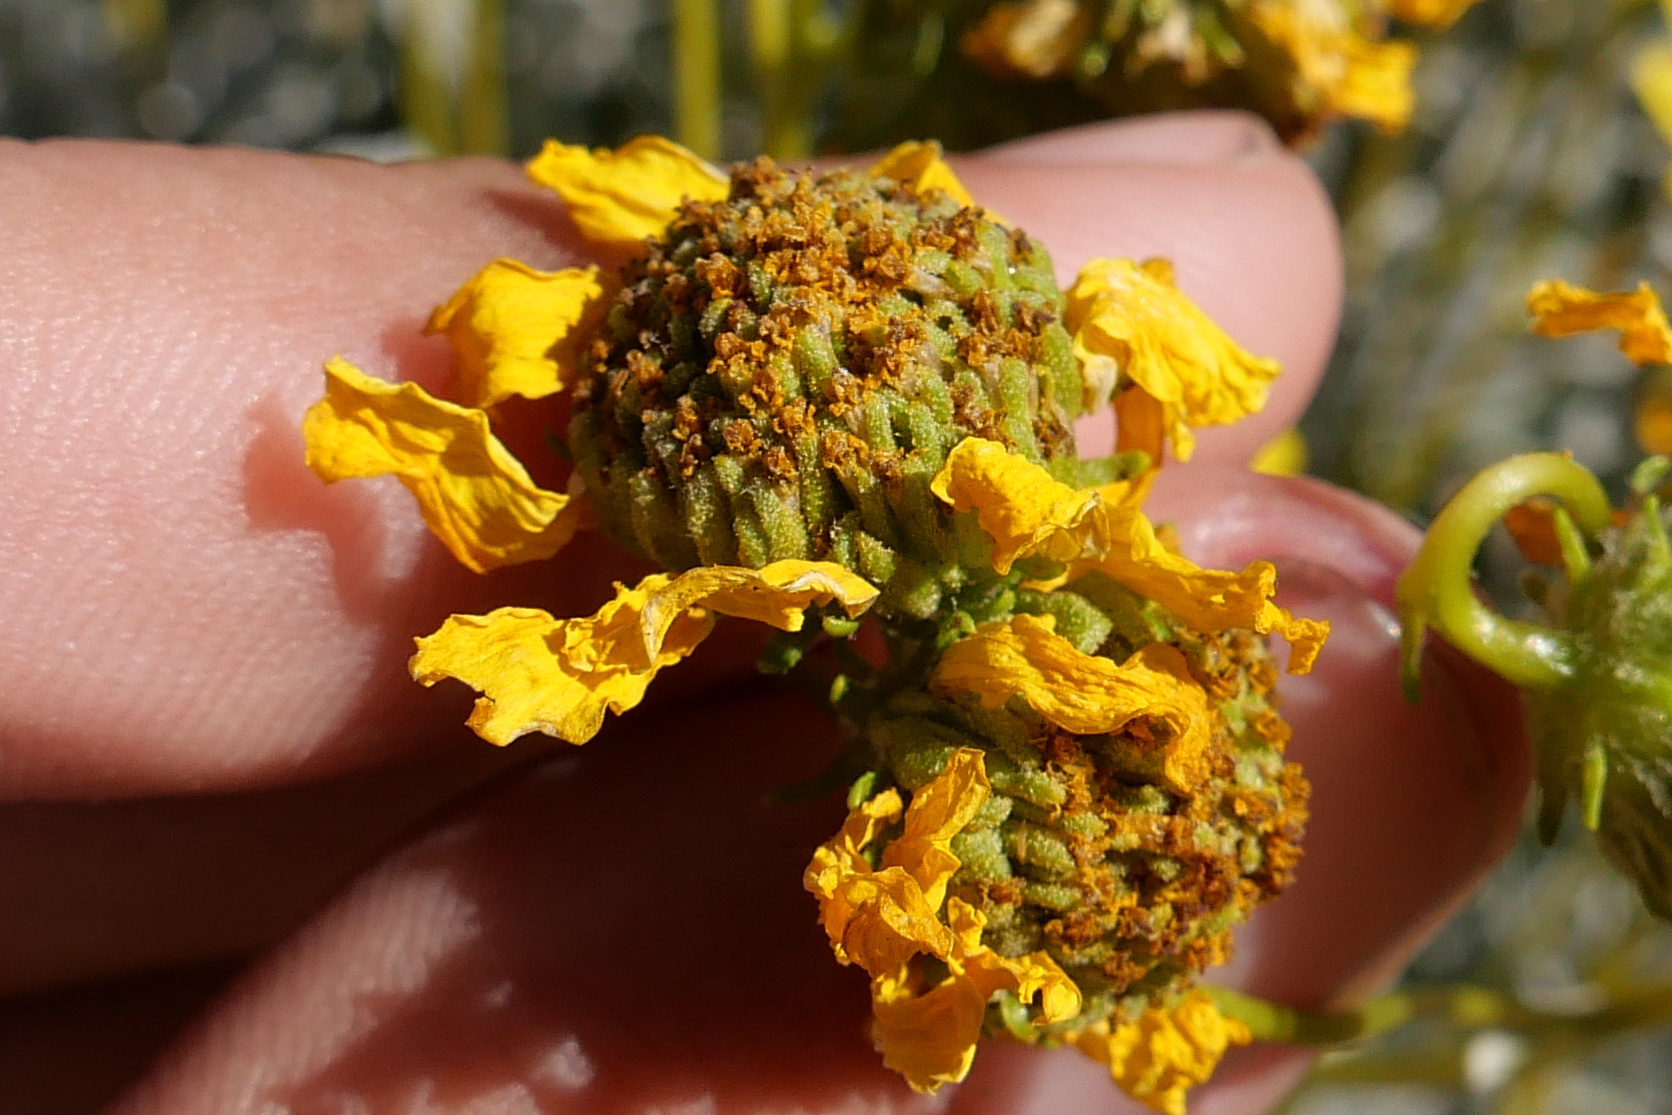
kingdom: Plantae
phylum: Tracheophyta
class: Magnoliopsida
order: Asterales
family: Asteraceae
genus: Encelia
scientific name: Encelia farinosa
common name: Brittlebush
